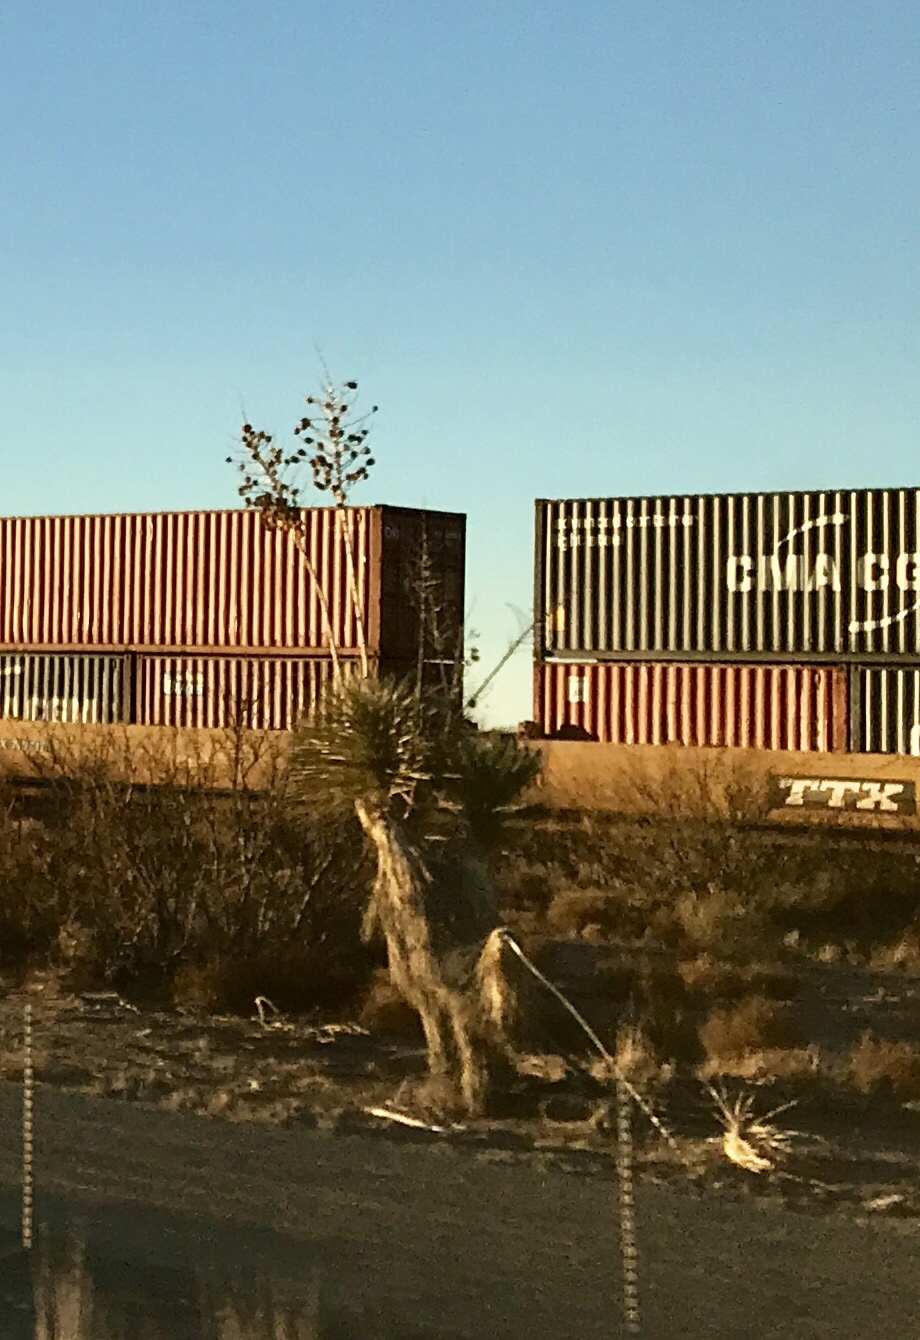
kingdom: Plantae
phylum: Tracheophyta
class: Liliopsida
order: Asparagales
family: Asparagaceae
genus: Yucca
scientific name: Yucca elata
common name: Palmella
